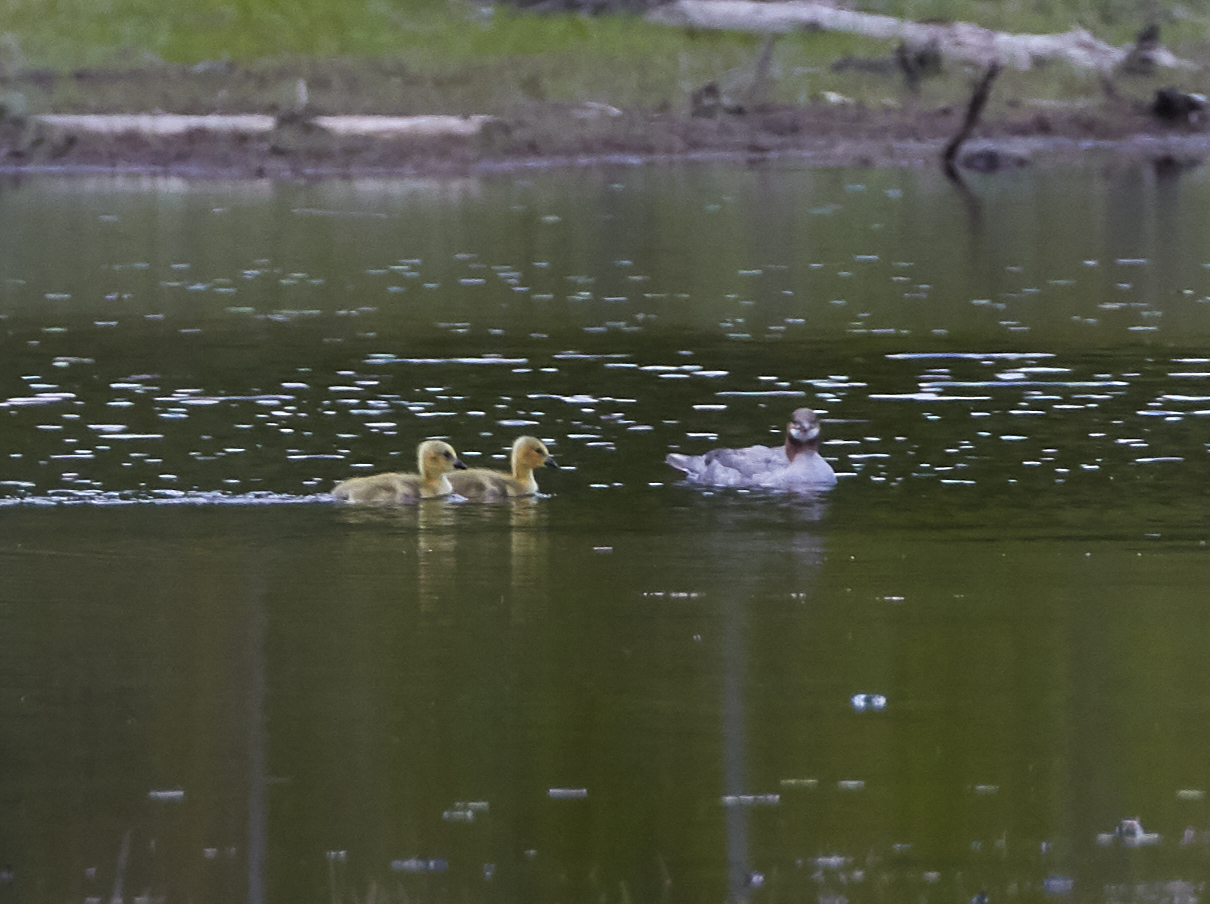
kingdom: Animalia
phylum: Chordata
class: Aves
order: Anseriformes
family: Anatidae
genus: Mergus
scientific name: Mergus merganser
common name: Common merganser
